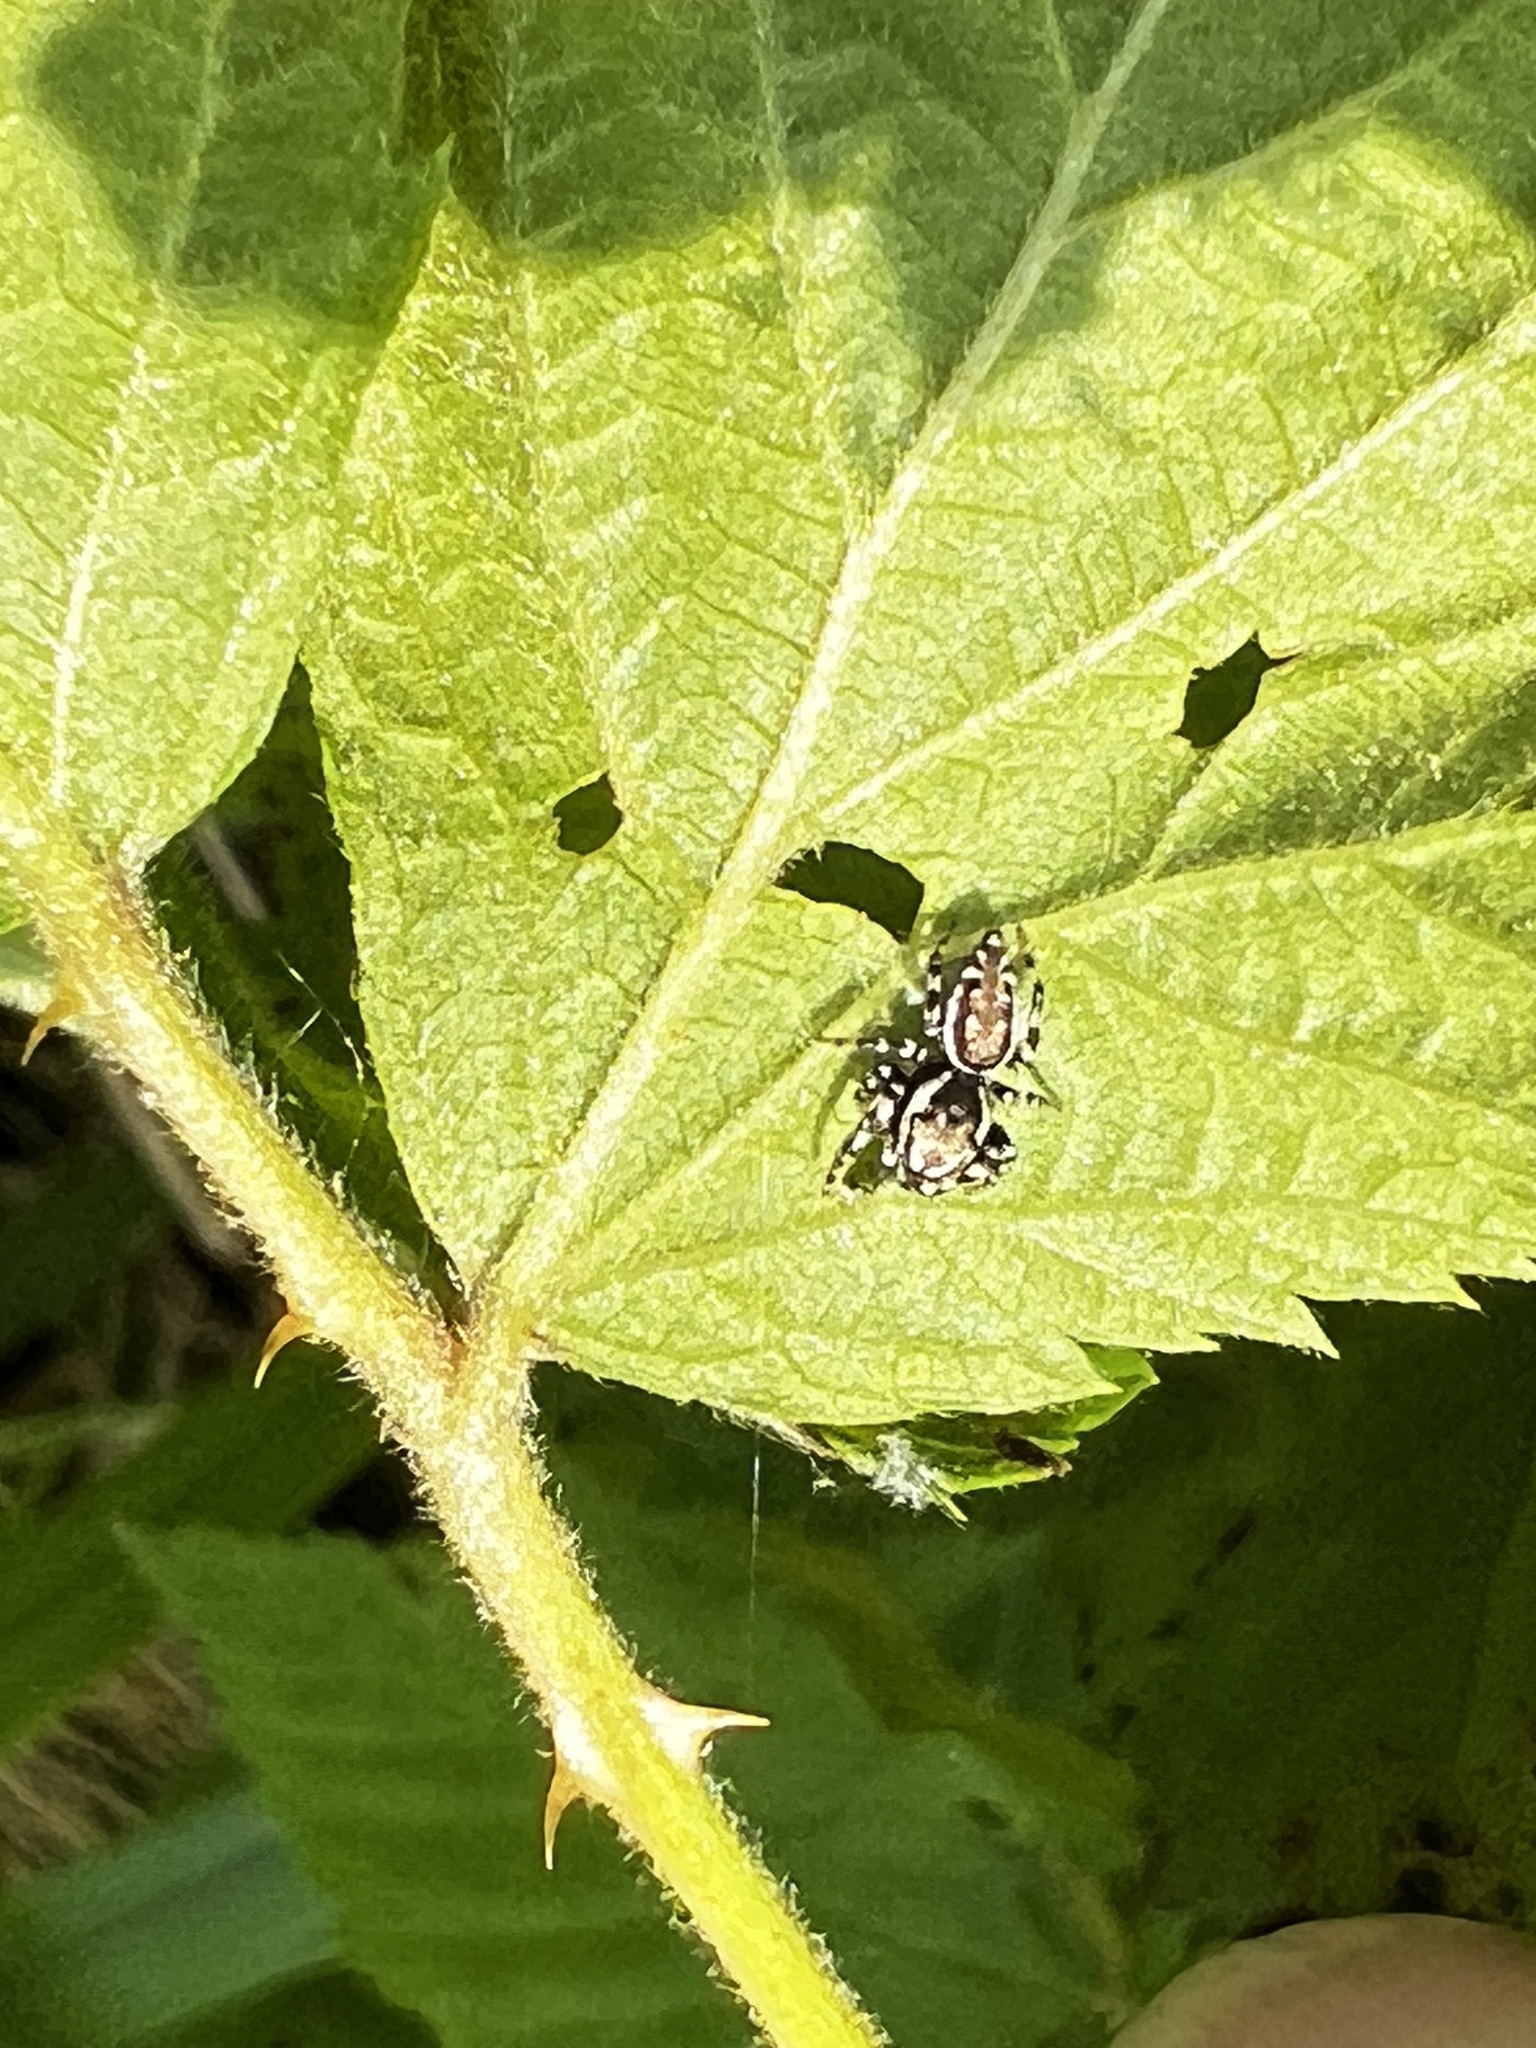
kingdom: Animalia
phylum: Arthropoda
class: Arachnida
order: Araneae
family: Salticidae
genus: Pelegrina
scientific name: Pelegrina galathea
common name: Jumping spiders
